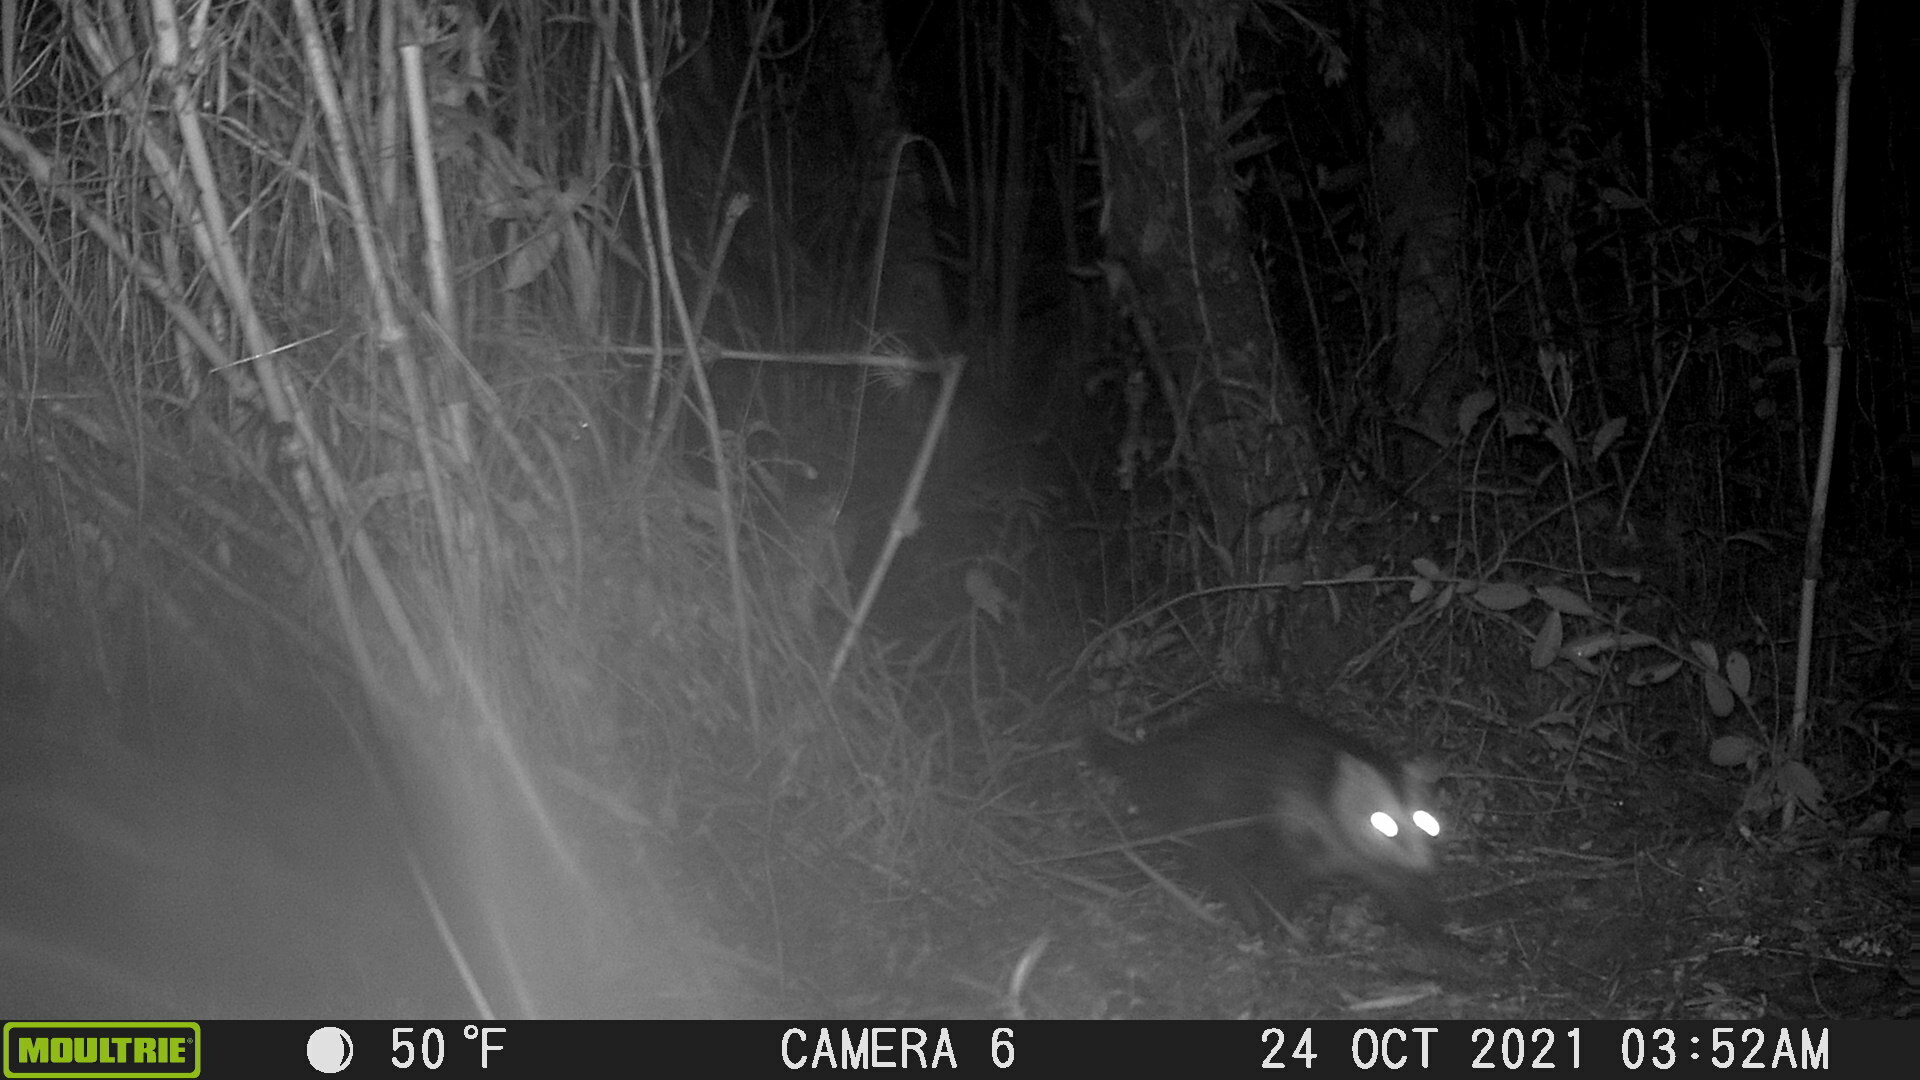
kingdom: Animalia
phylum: Chordata
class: Mammalia
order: Didelphimorphia
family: Didelphidae
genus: Didelphis
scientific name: Didelphis pernigra
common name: Andean white-eared opossum
